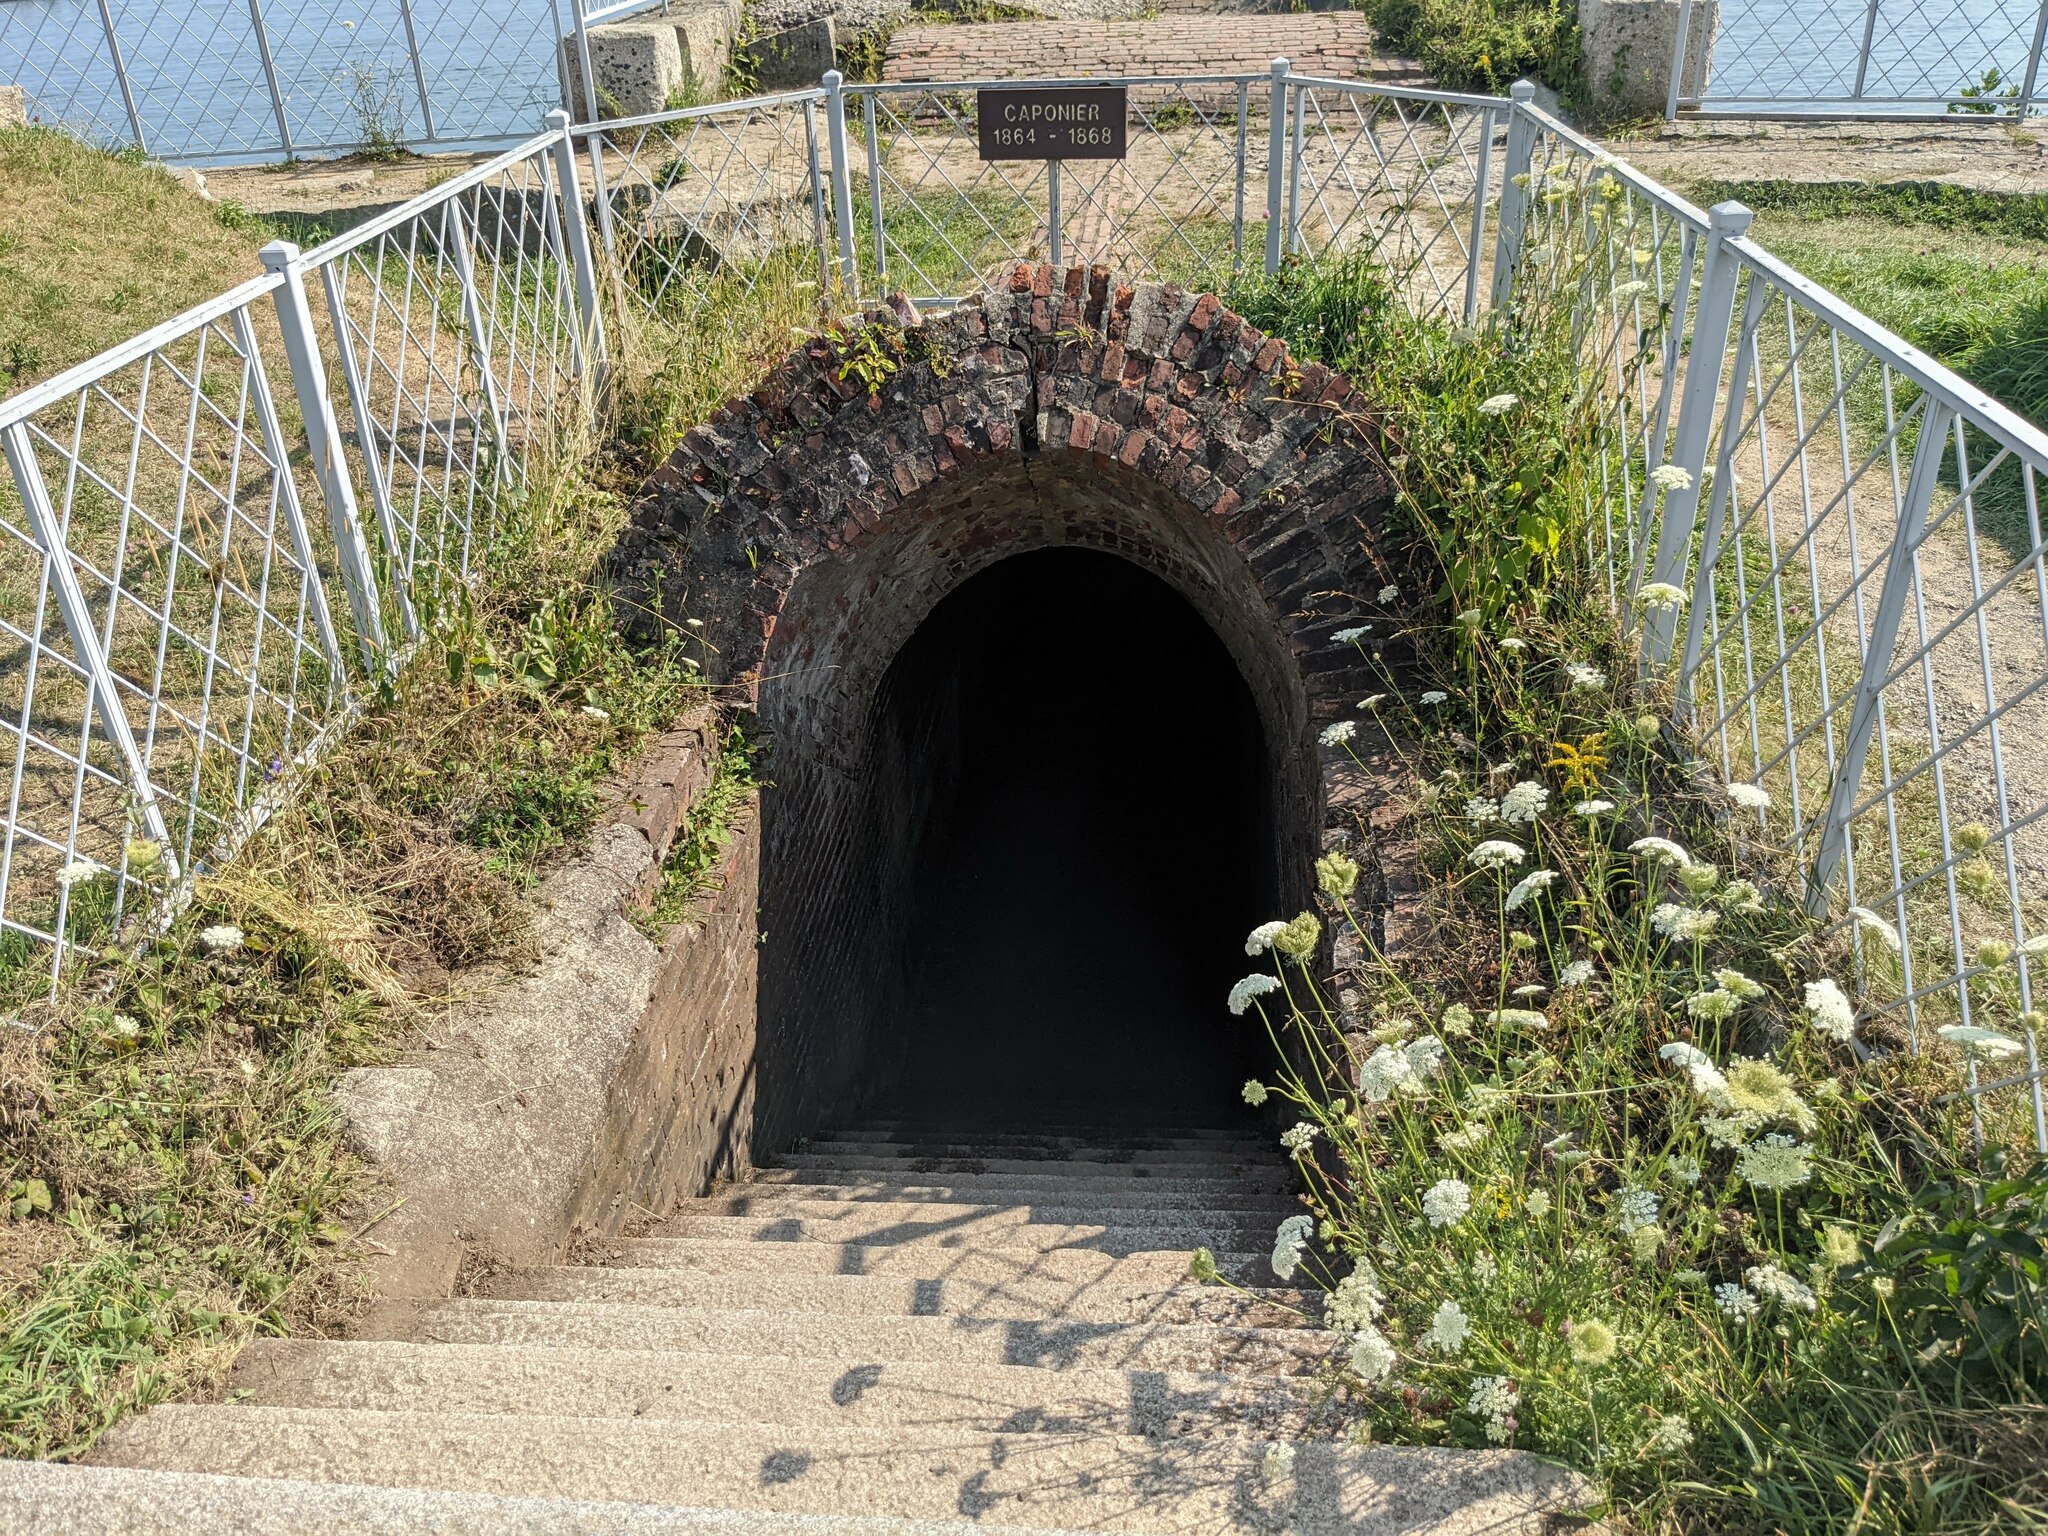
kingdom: Plantae
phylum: Tracheophyta
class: Magnoliopsida
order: Apiales
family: Apiaceae
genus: Daucus
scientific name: Daucus carota
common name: Wild carrot
